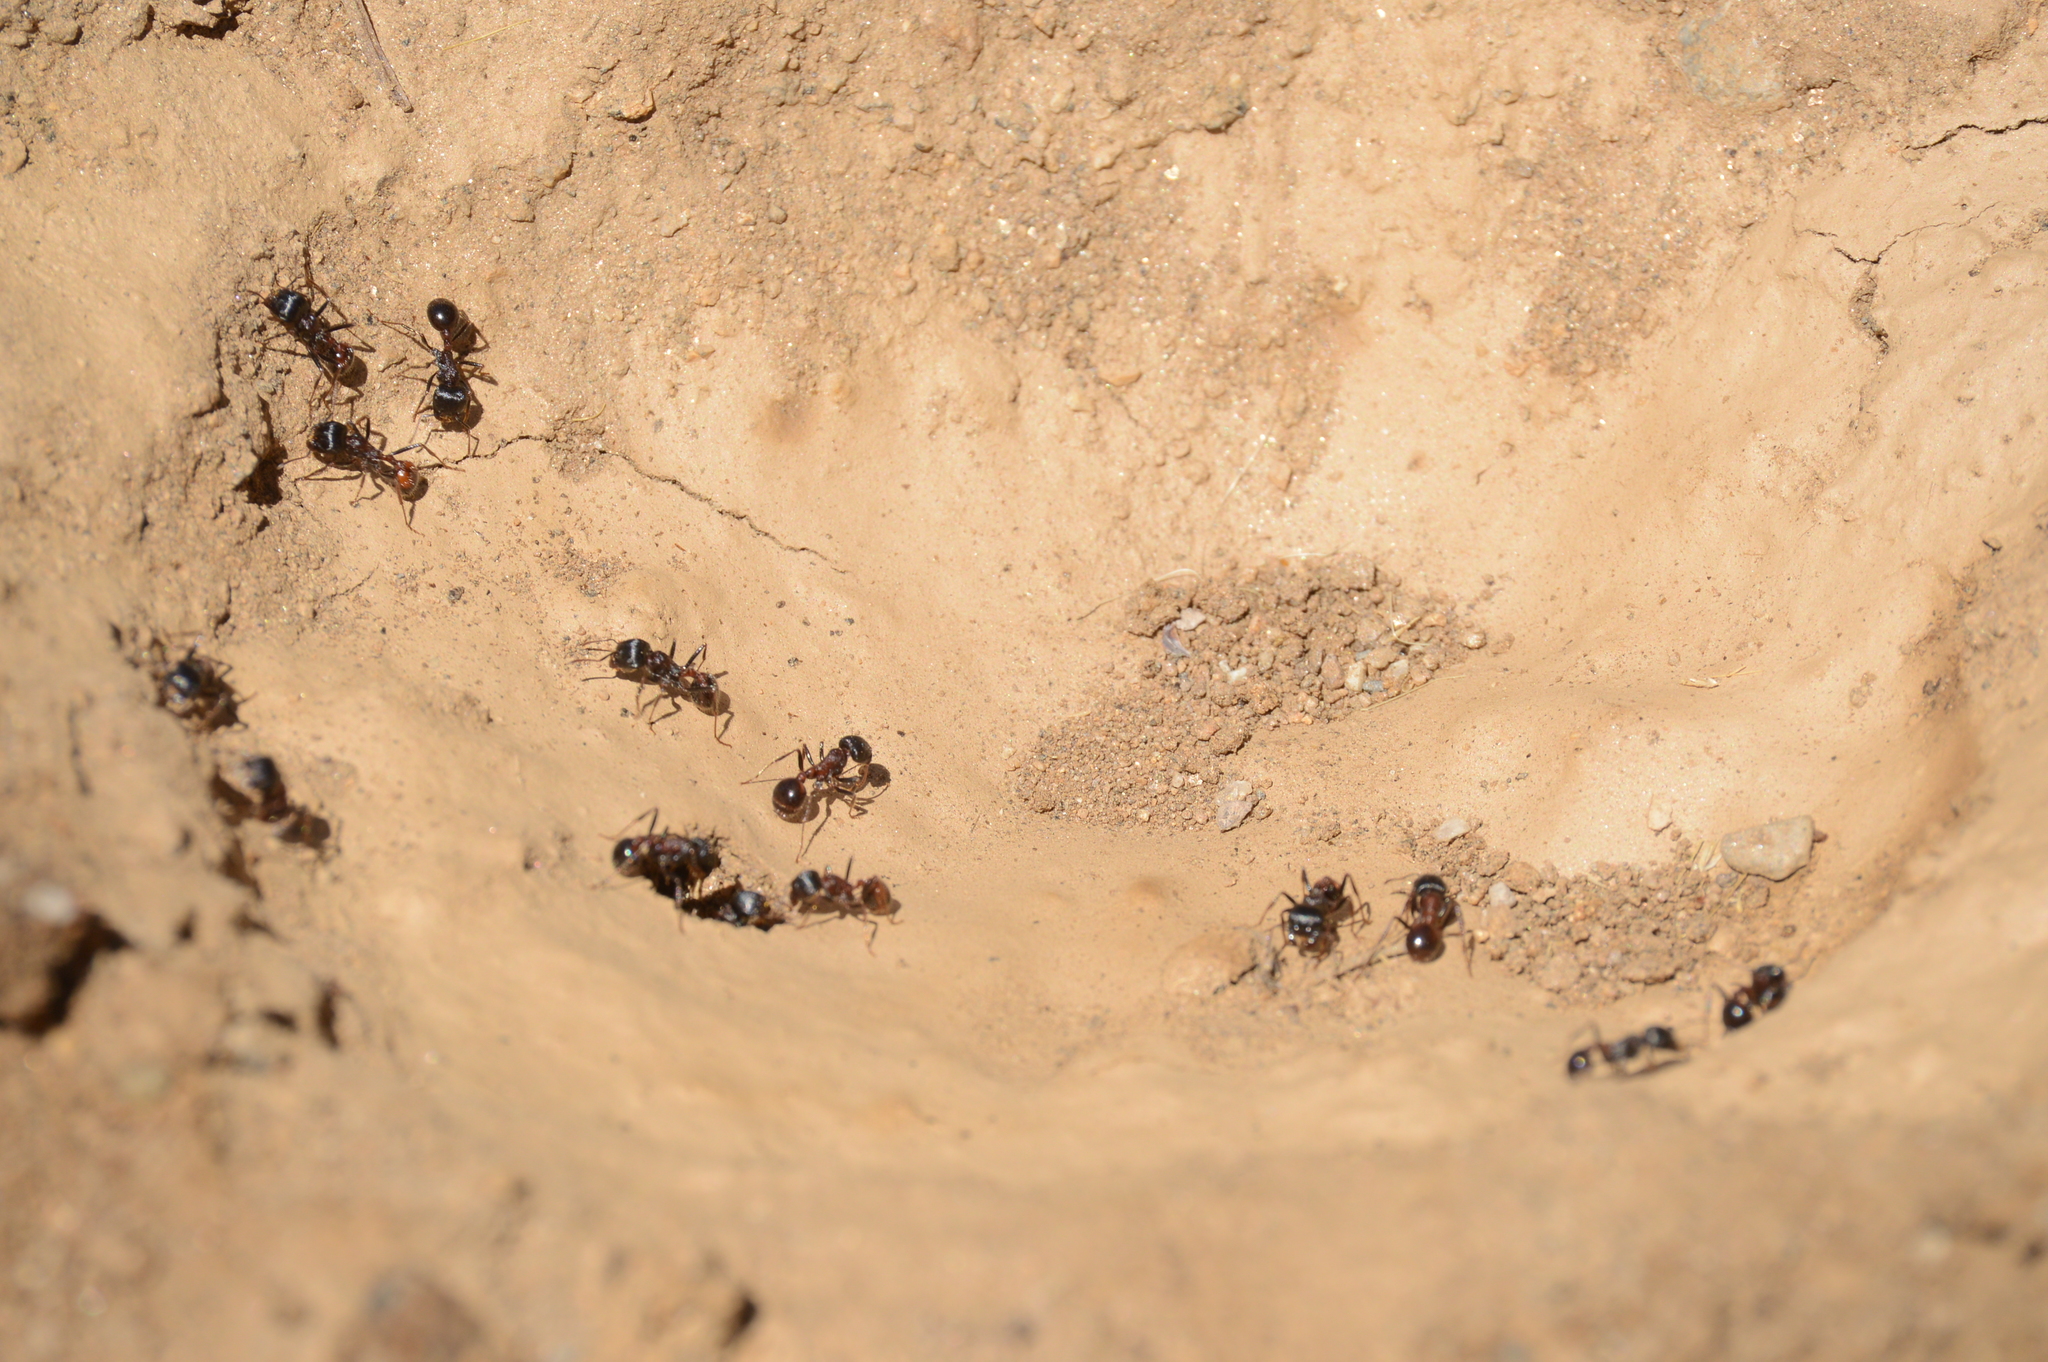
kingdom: Animalia
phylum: Arthropoda
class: Insecta
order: Hymenoptera
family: Formicidae
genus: Pogonomyrmex
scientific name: Pogonomyrmex rugosus
